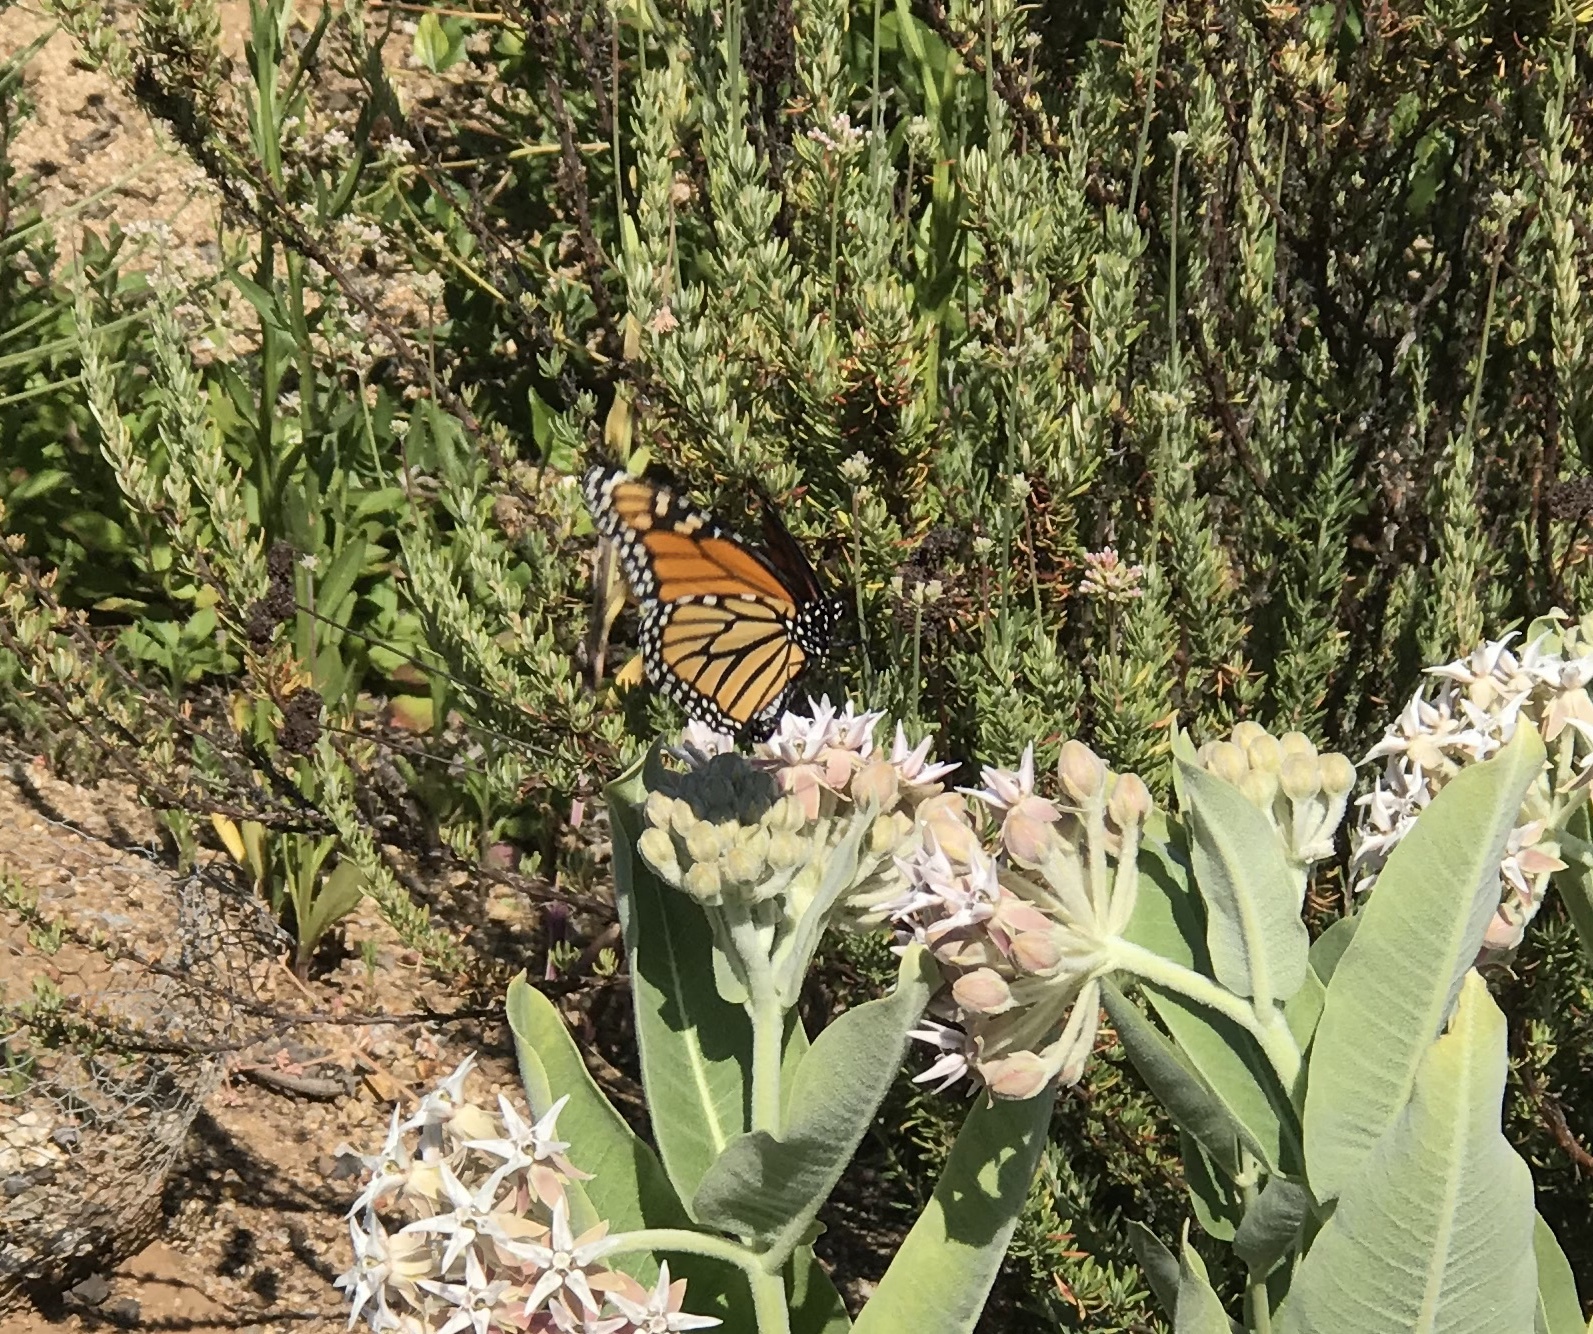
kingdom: Animalia
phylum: Arthropoda
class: Insecta
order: Lepidoptera
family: Nymphalidae
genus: Danaus
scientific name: Danaus plexippus
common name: Monarch
